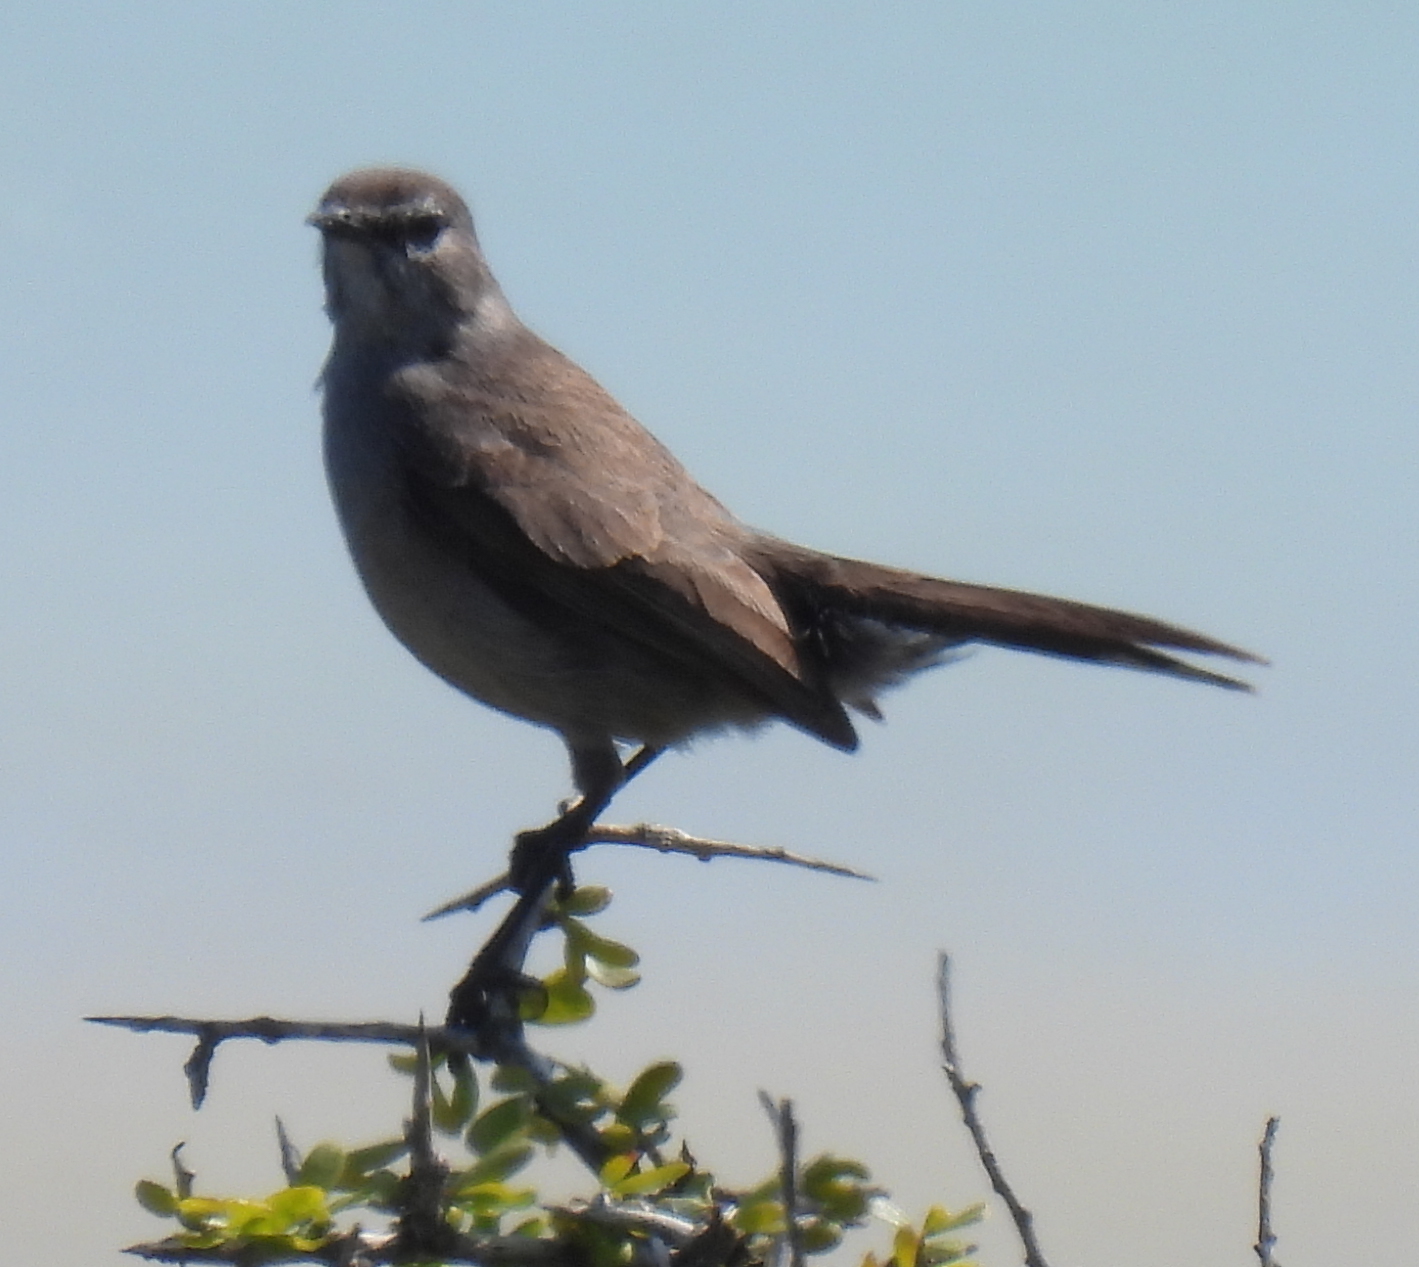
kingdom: Animalia
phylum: Chordata
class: Aves
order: Passeriformes
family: Muscicapidae
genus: Erythropygia
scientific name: Erythropygia coryphoeus
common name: Karoo scrub robin
